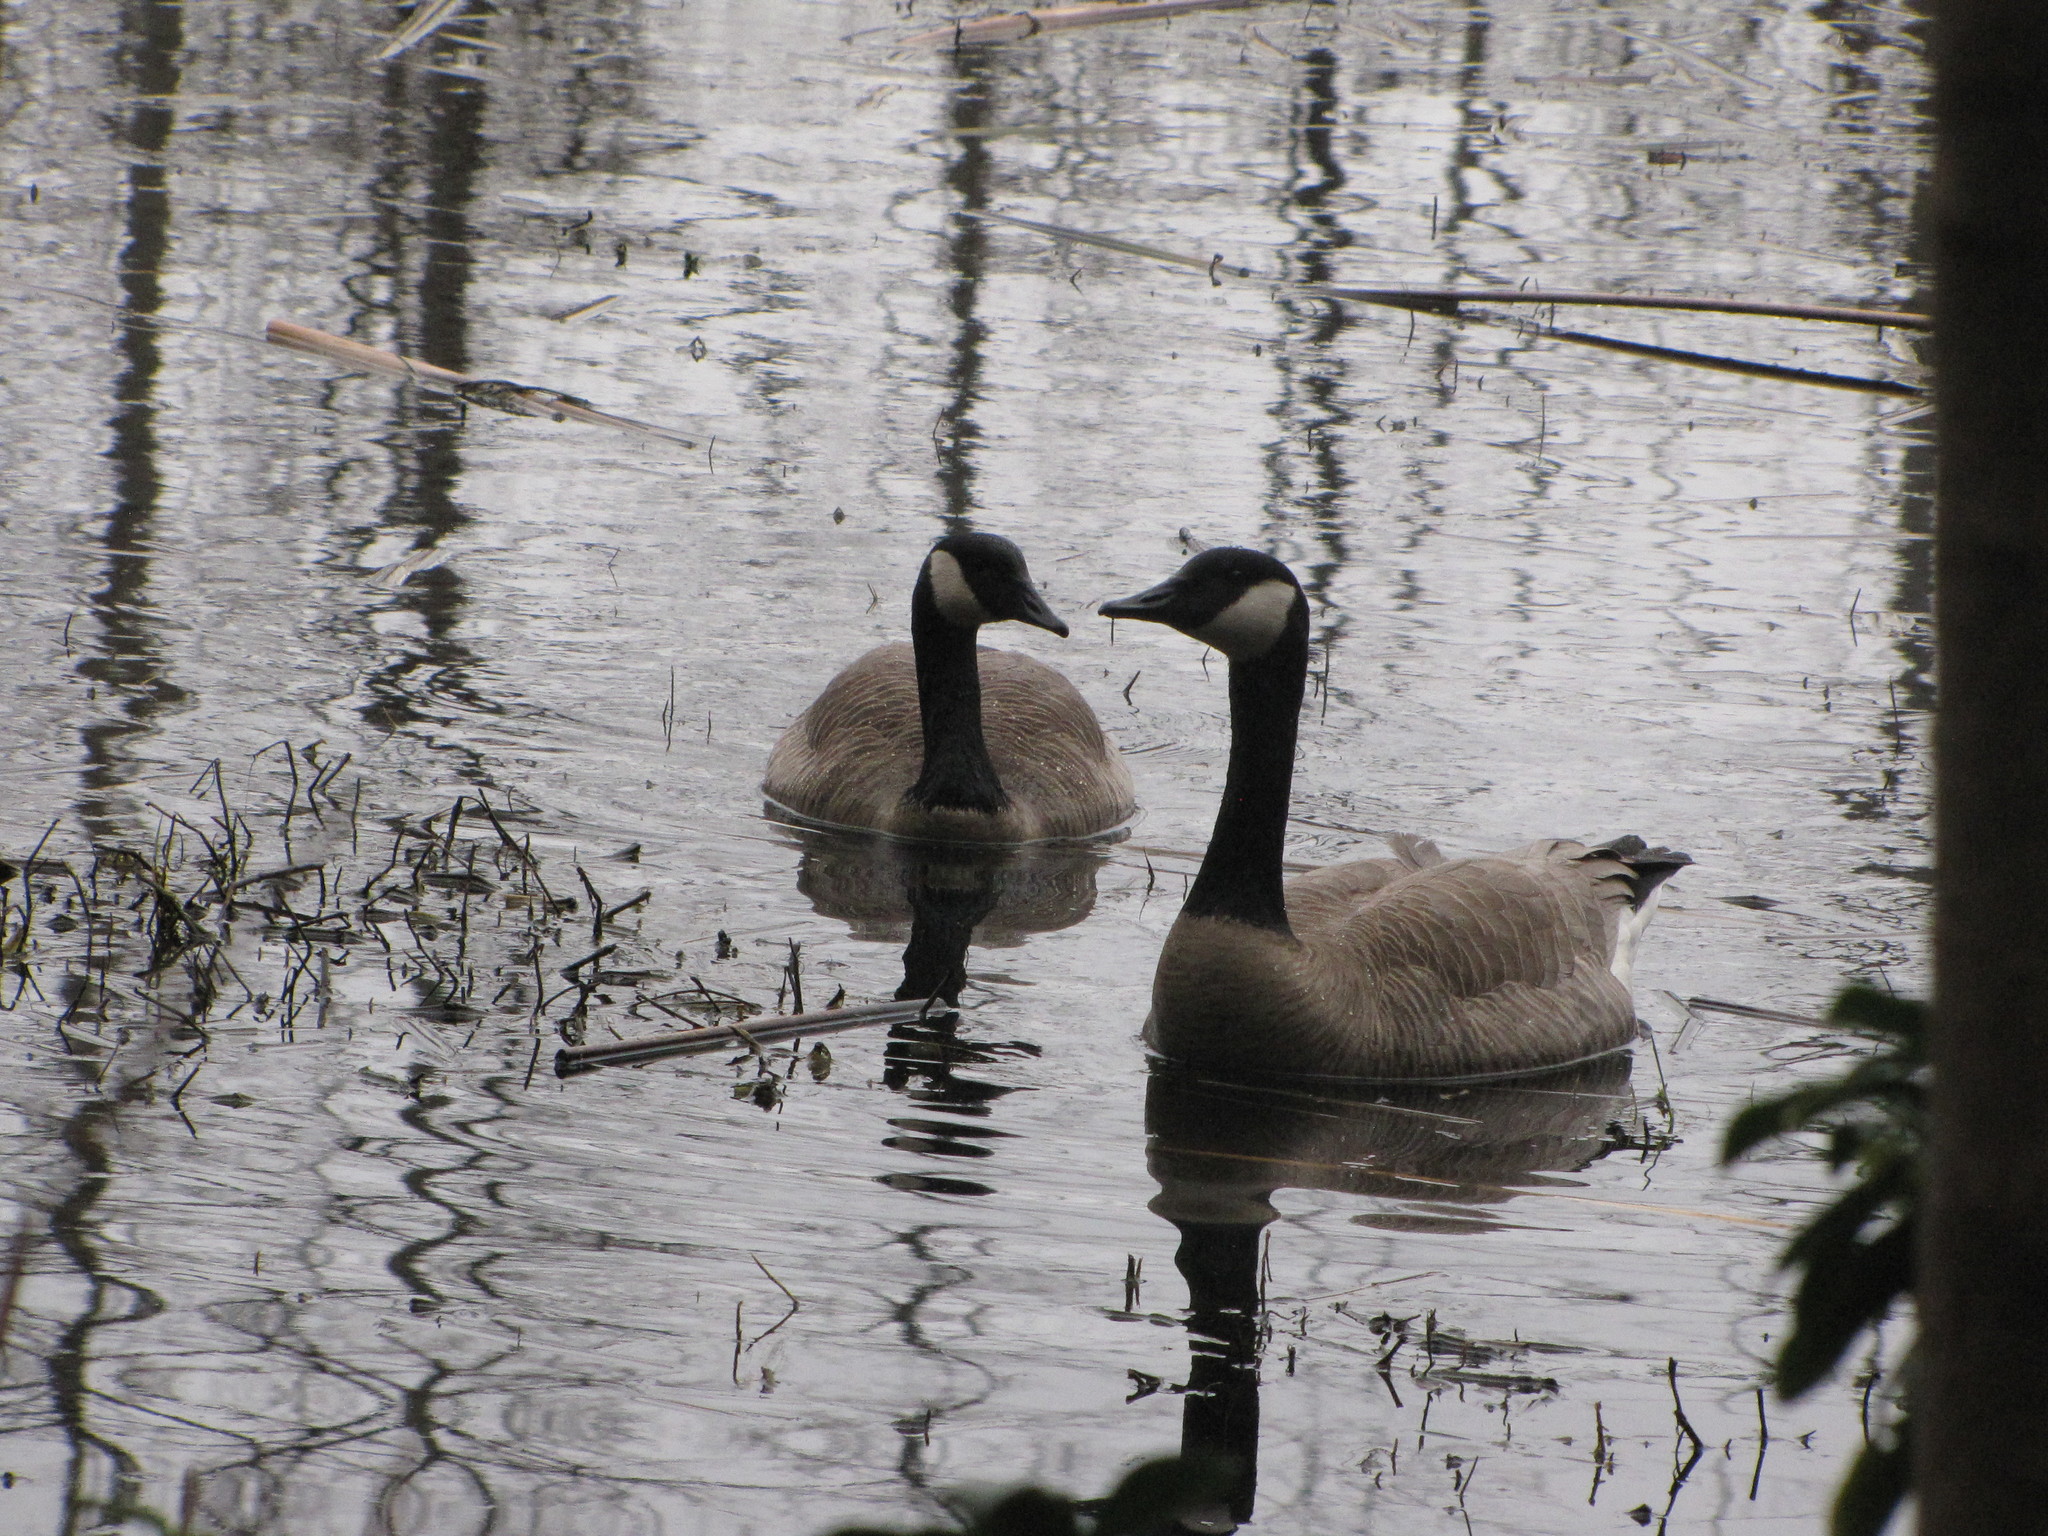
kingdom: Animalia
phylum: Chordata
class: Aves
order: Anseriformes
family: Anatidae
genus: Branta
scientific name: Branta canadensis
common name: Canada goose
